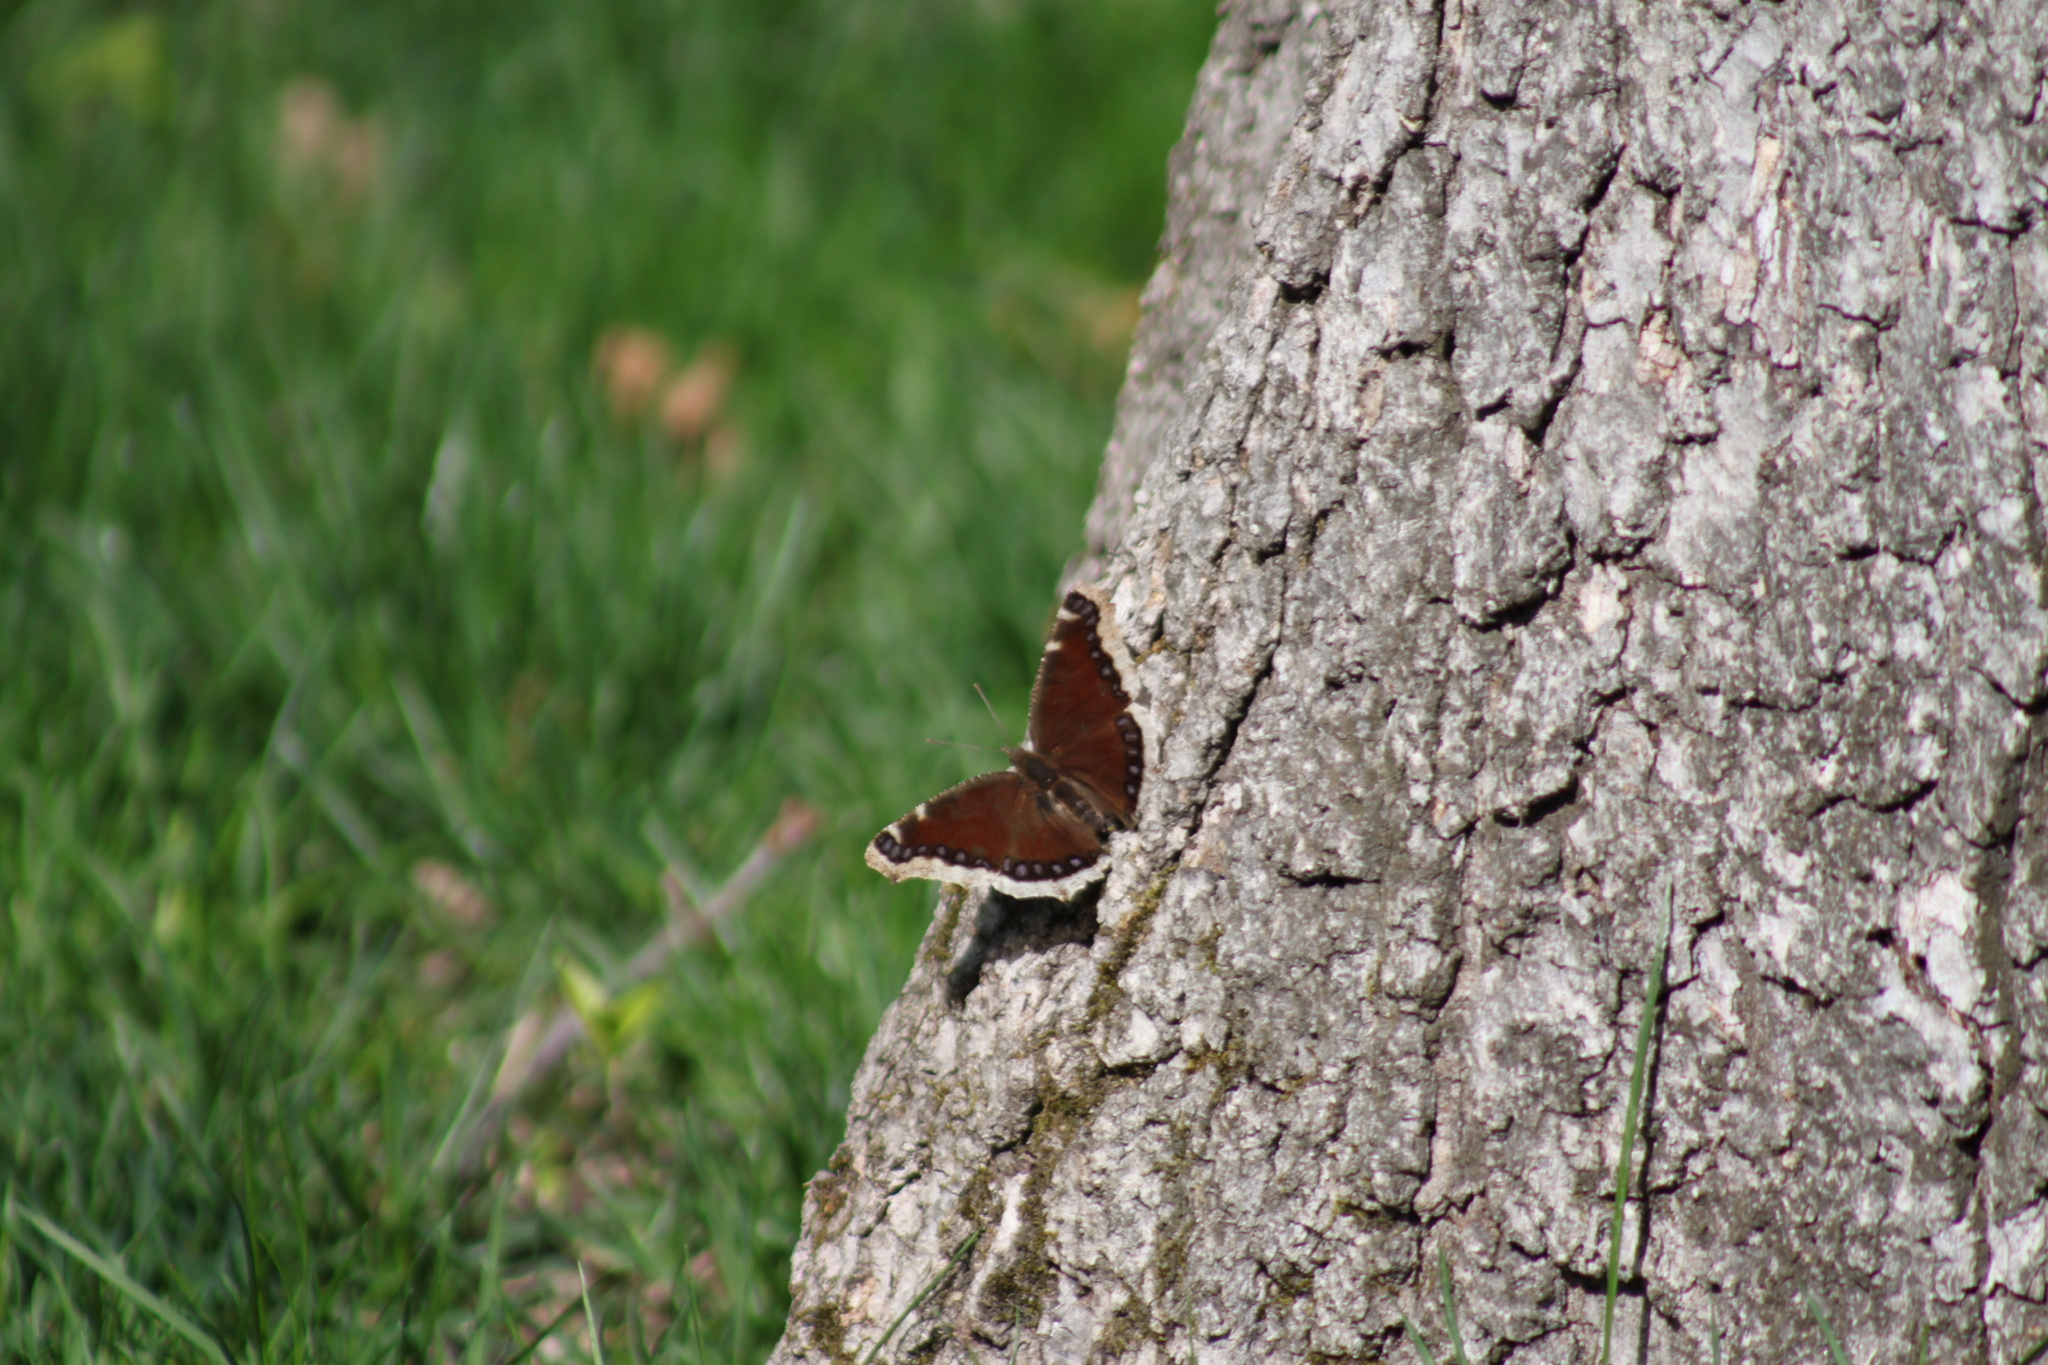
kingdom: Animalia
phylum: Arthropoda
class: Insecta
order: Lepidoptera
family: Nymphalidae
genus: Nymphalis
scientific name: Nymphalis antiopa
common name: Camberwell beauty
